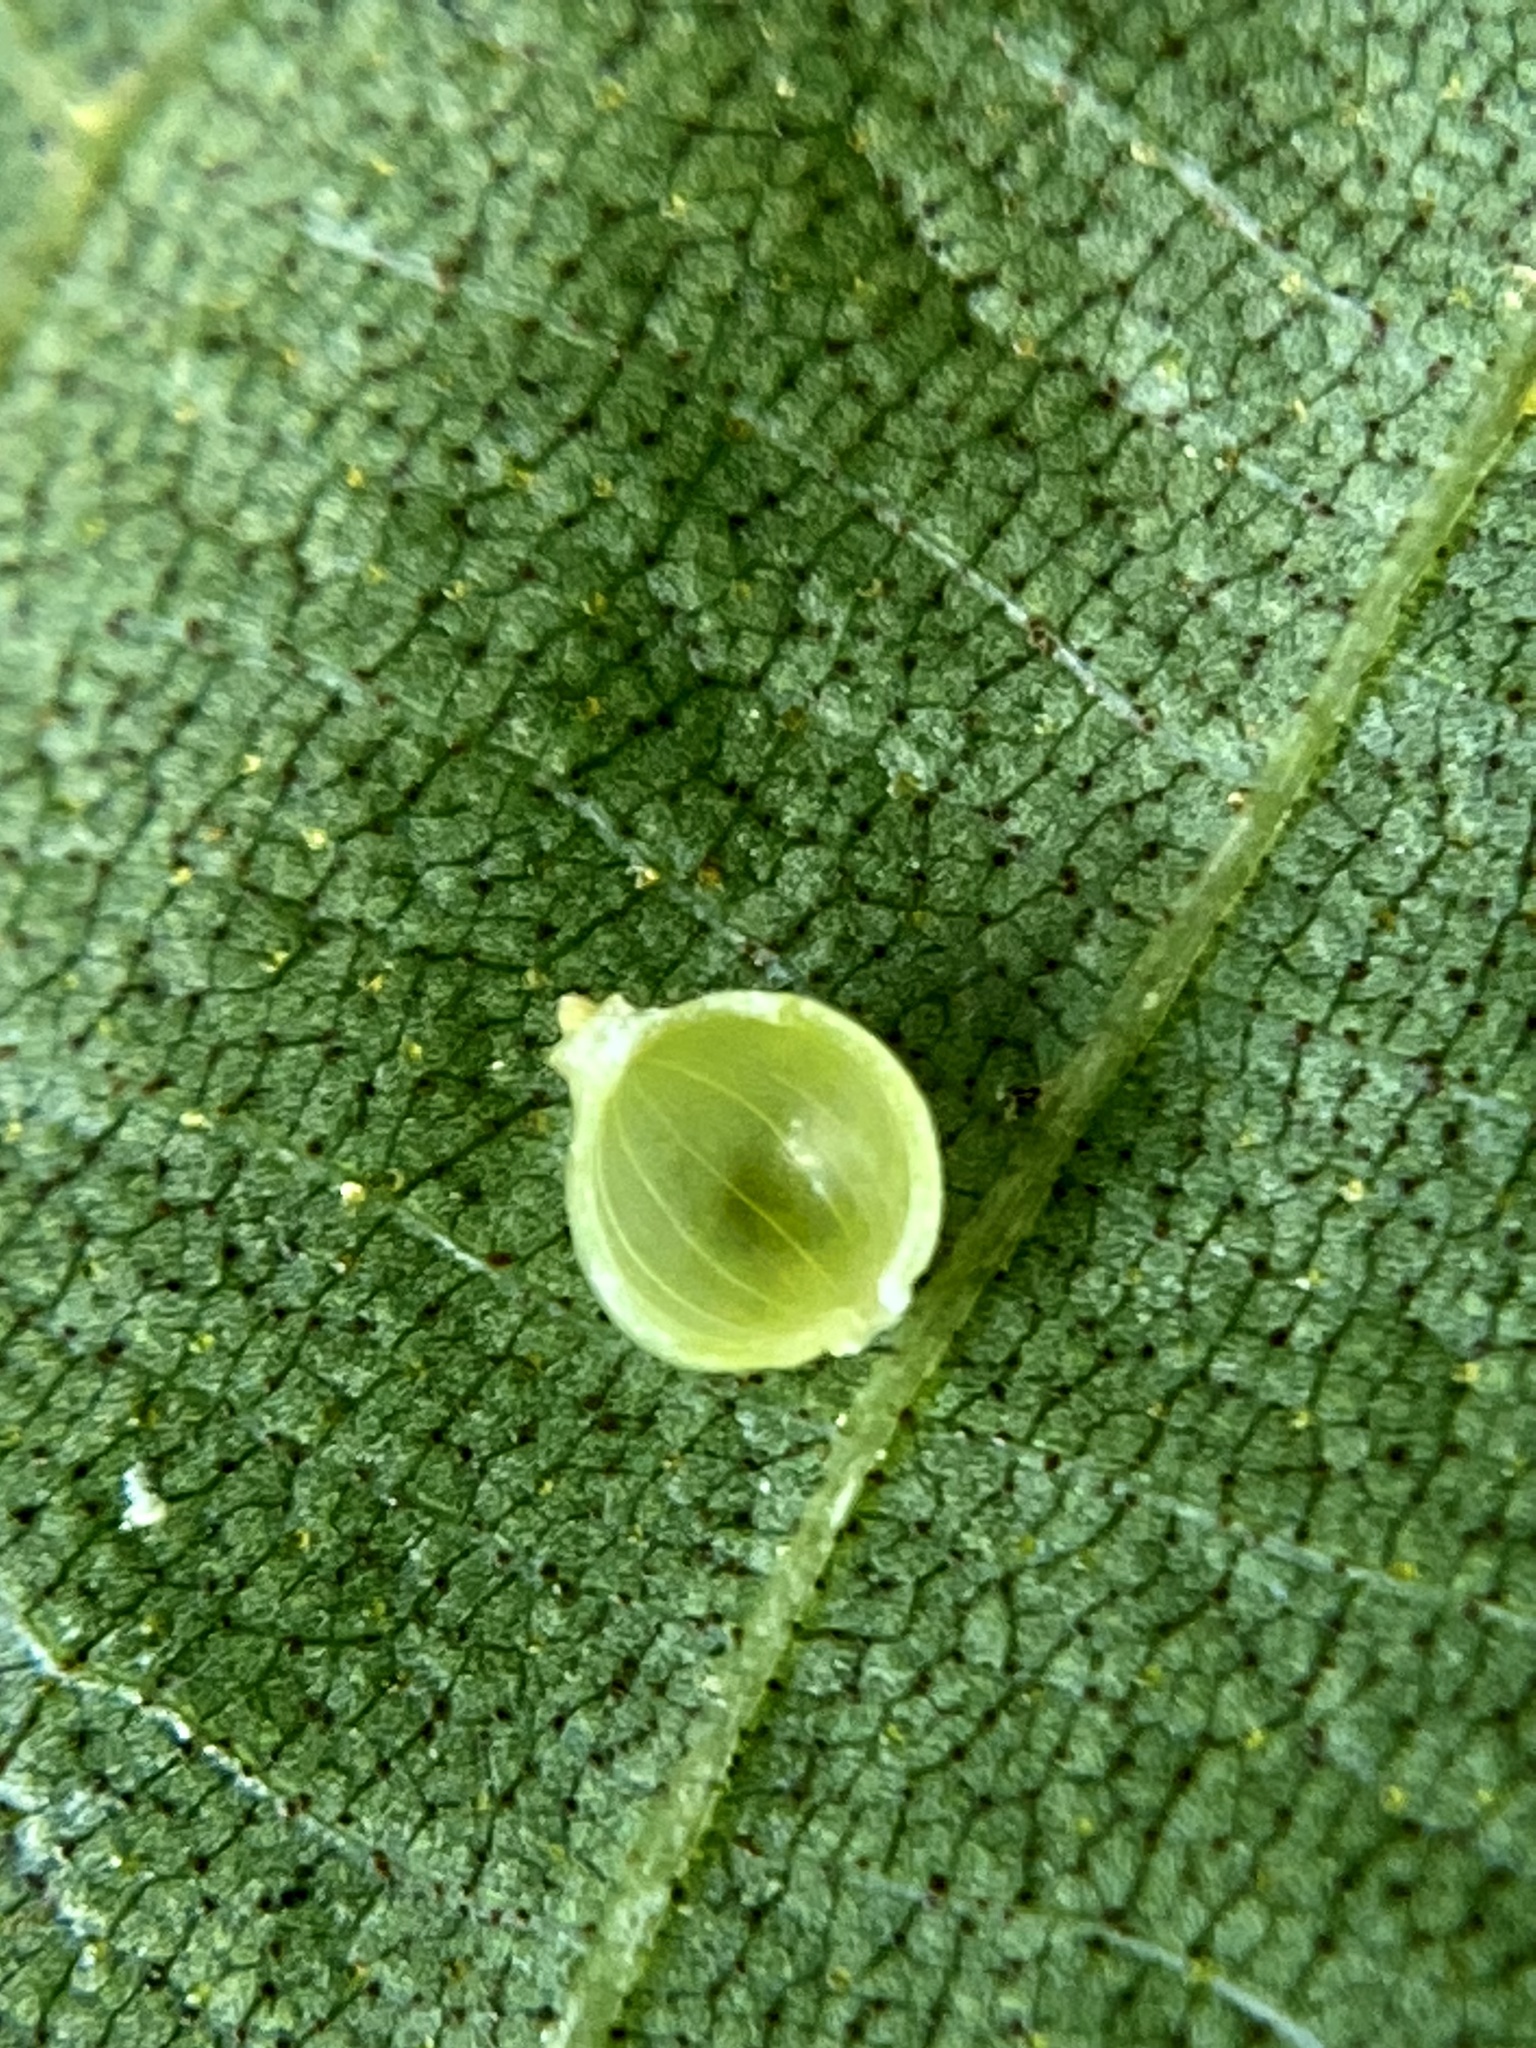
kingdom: Animalia
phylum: Arthropoda
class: Insecta
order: Diptera
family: Cecidomyiidae
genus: Caryomyia
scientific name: Caryomyia leviglobus
